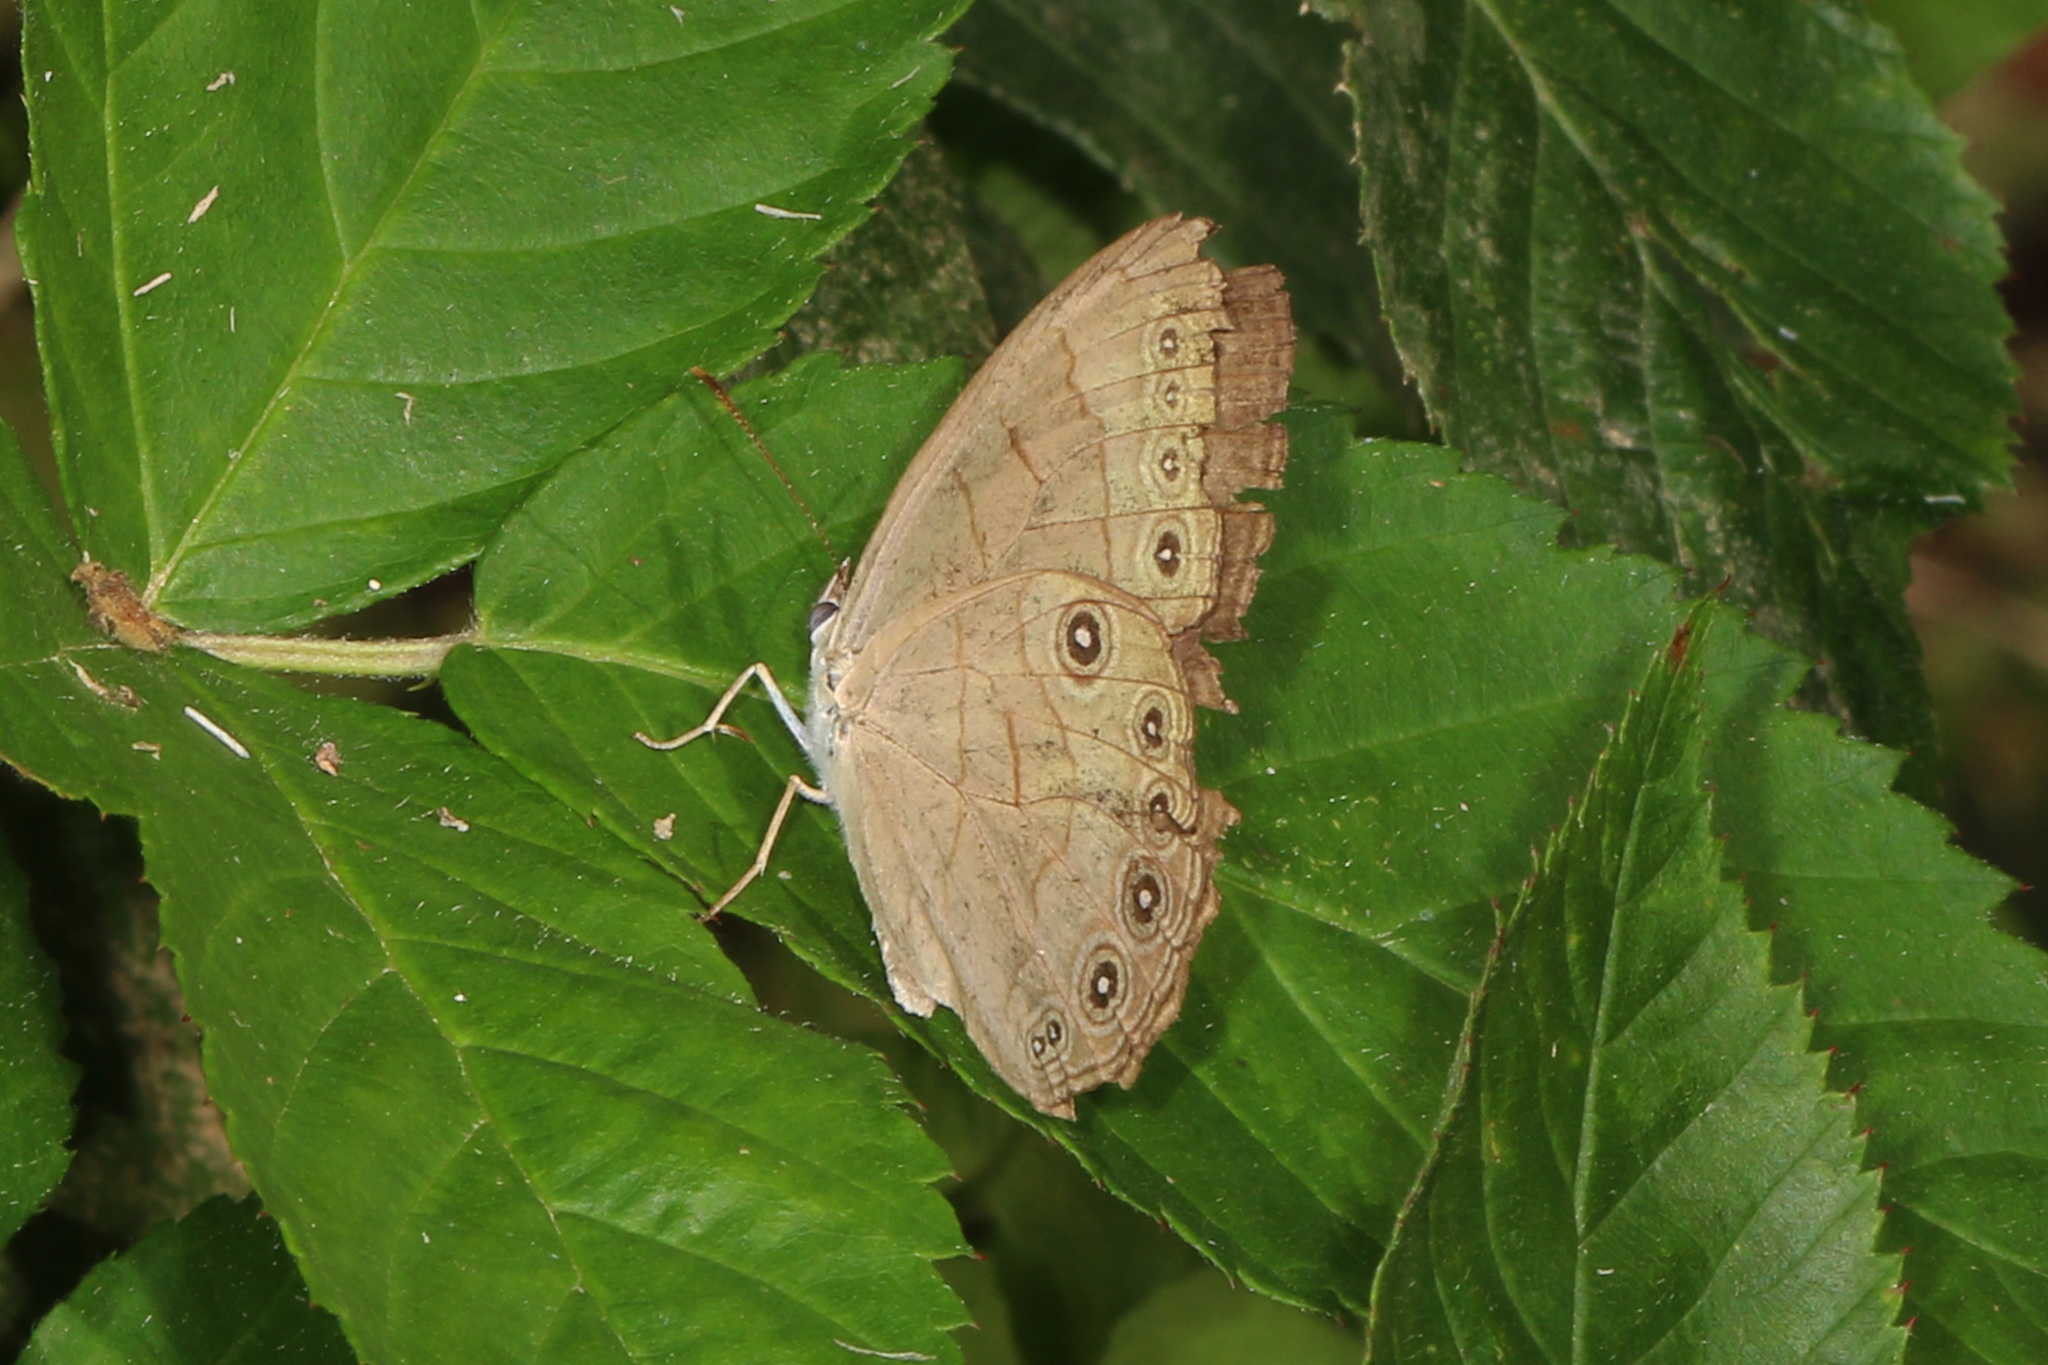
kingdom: Animalia
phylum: Arthropoda
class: Insecta
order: Lepidoptera
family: Nymphalidae
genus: Lethe
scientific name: Lethe eurydice
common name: Eyed brown
